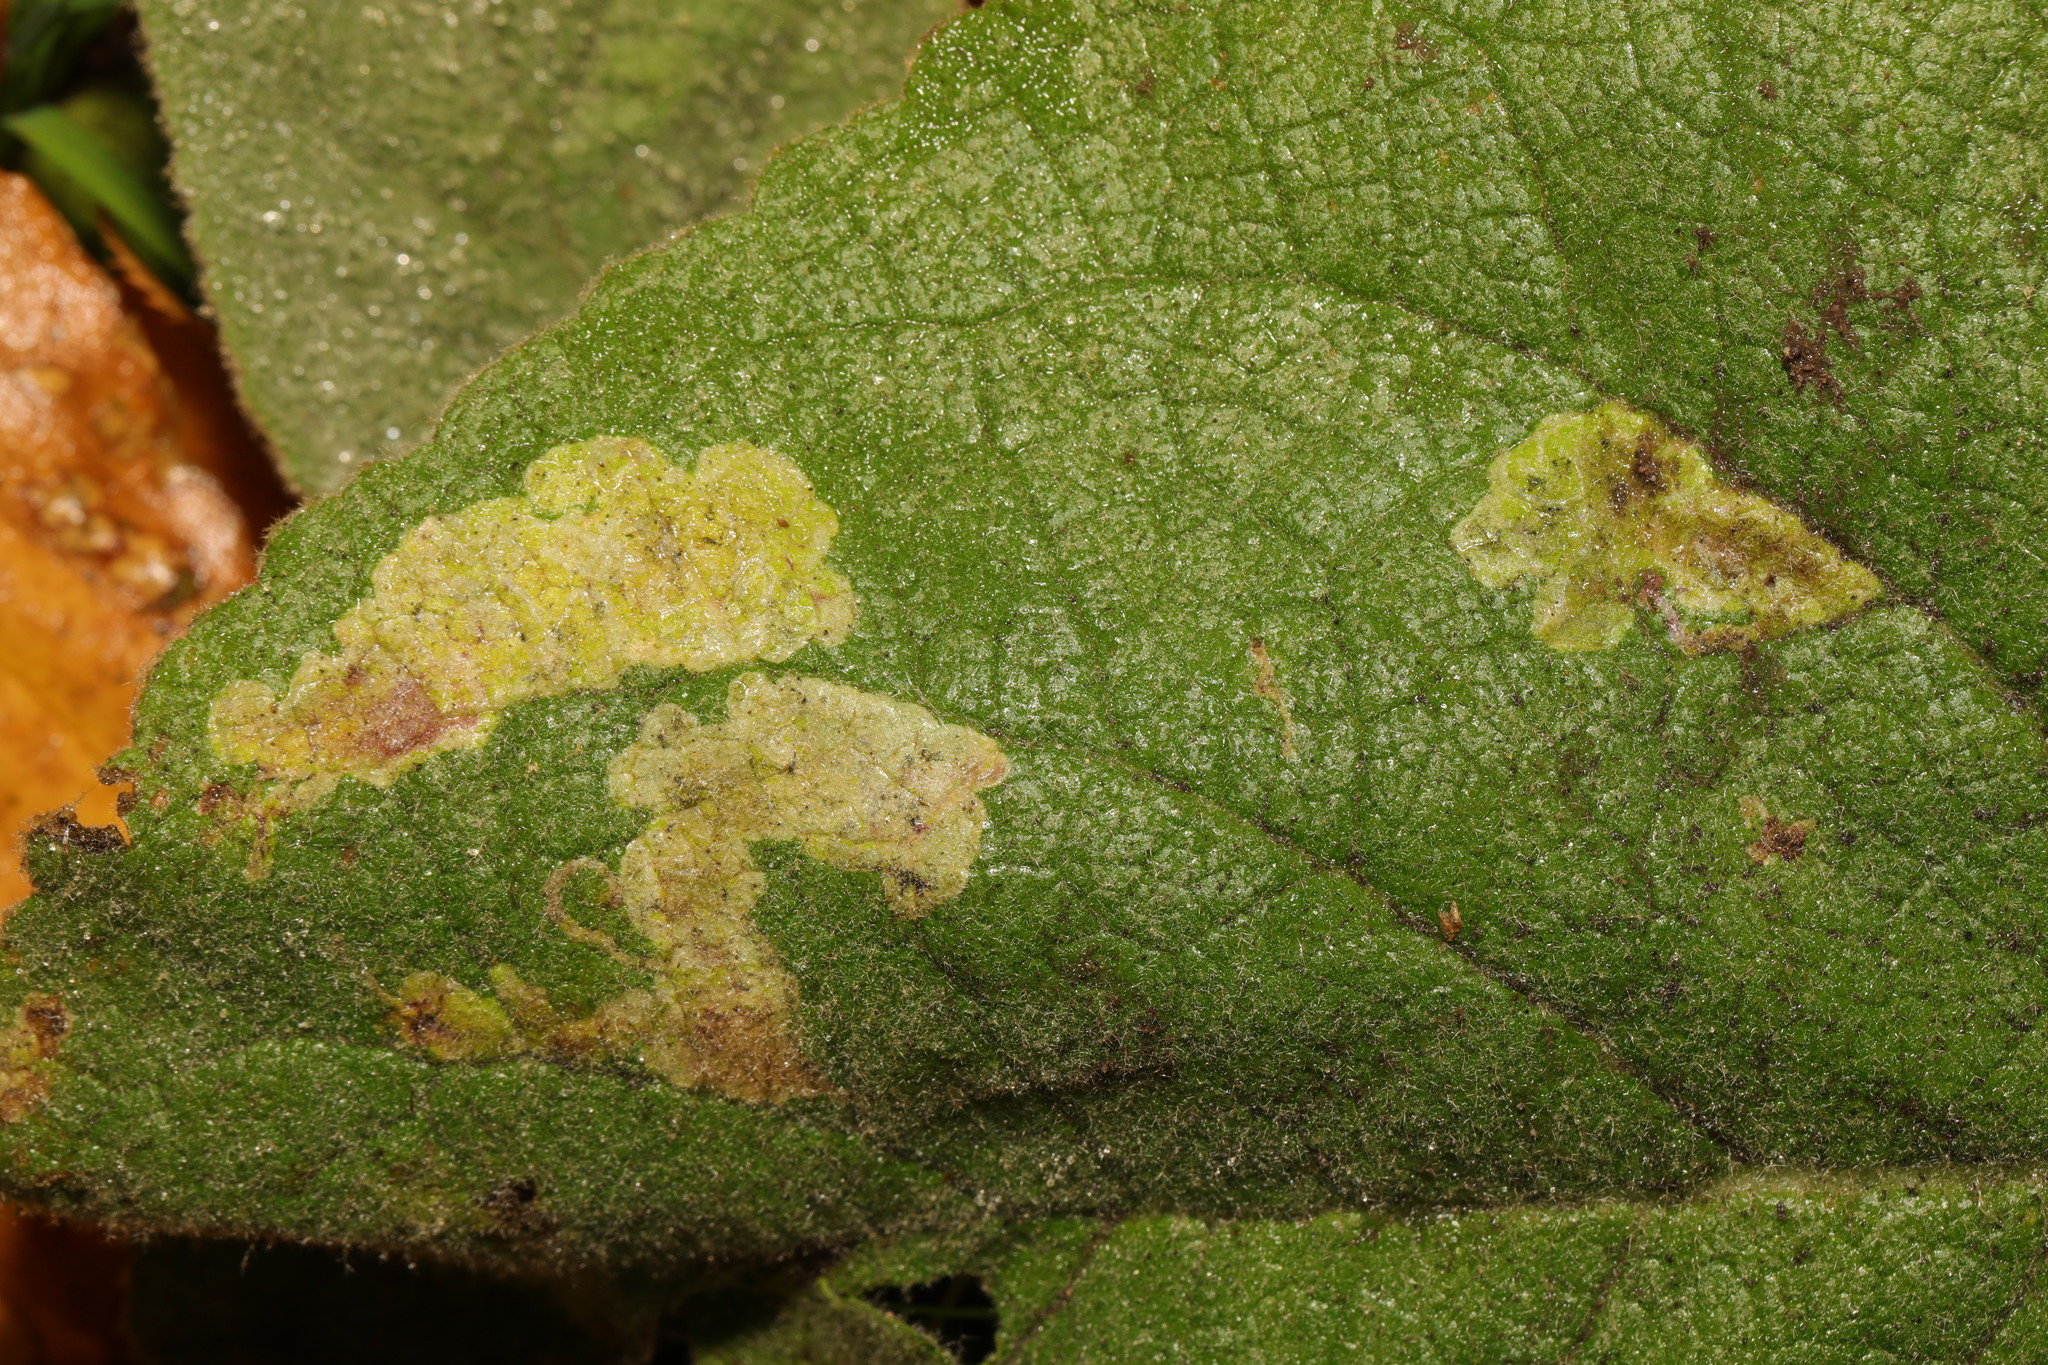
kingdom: Animalia
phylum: Arthropoda
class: Insecta
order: Diptera
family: Agromyzidae
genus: Amauromyza
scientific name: Amauromyza verbasci
